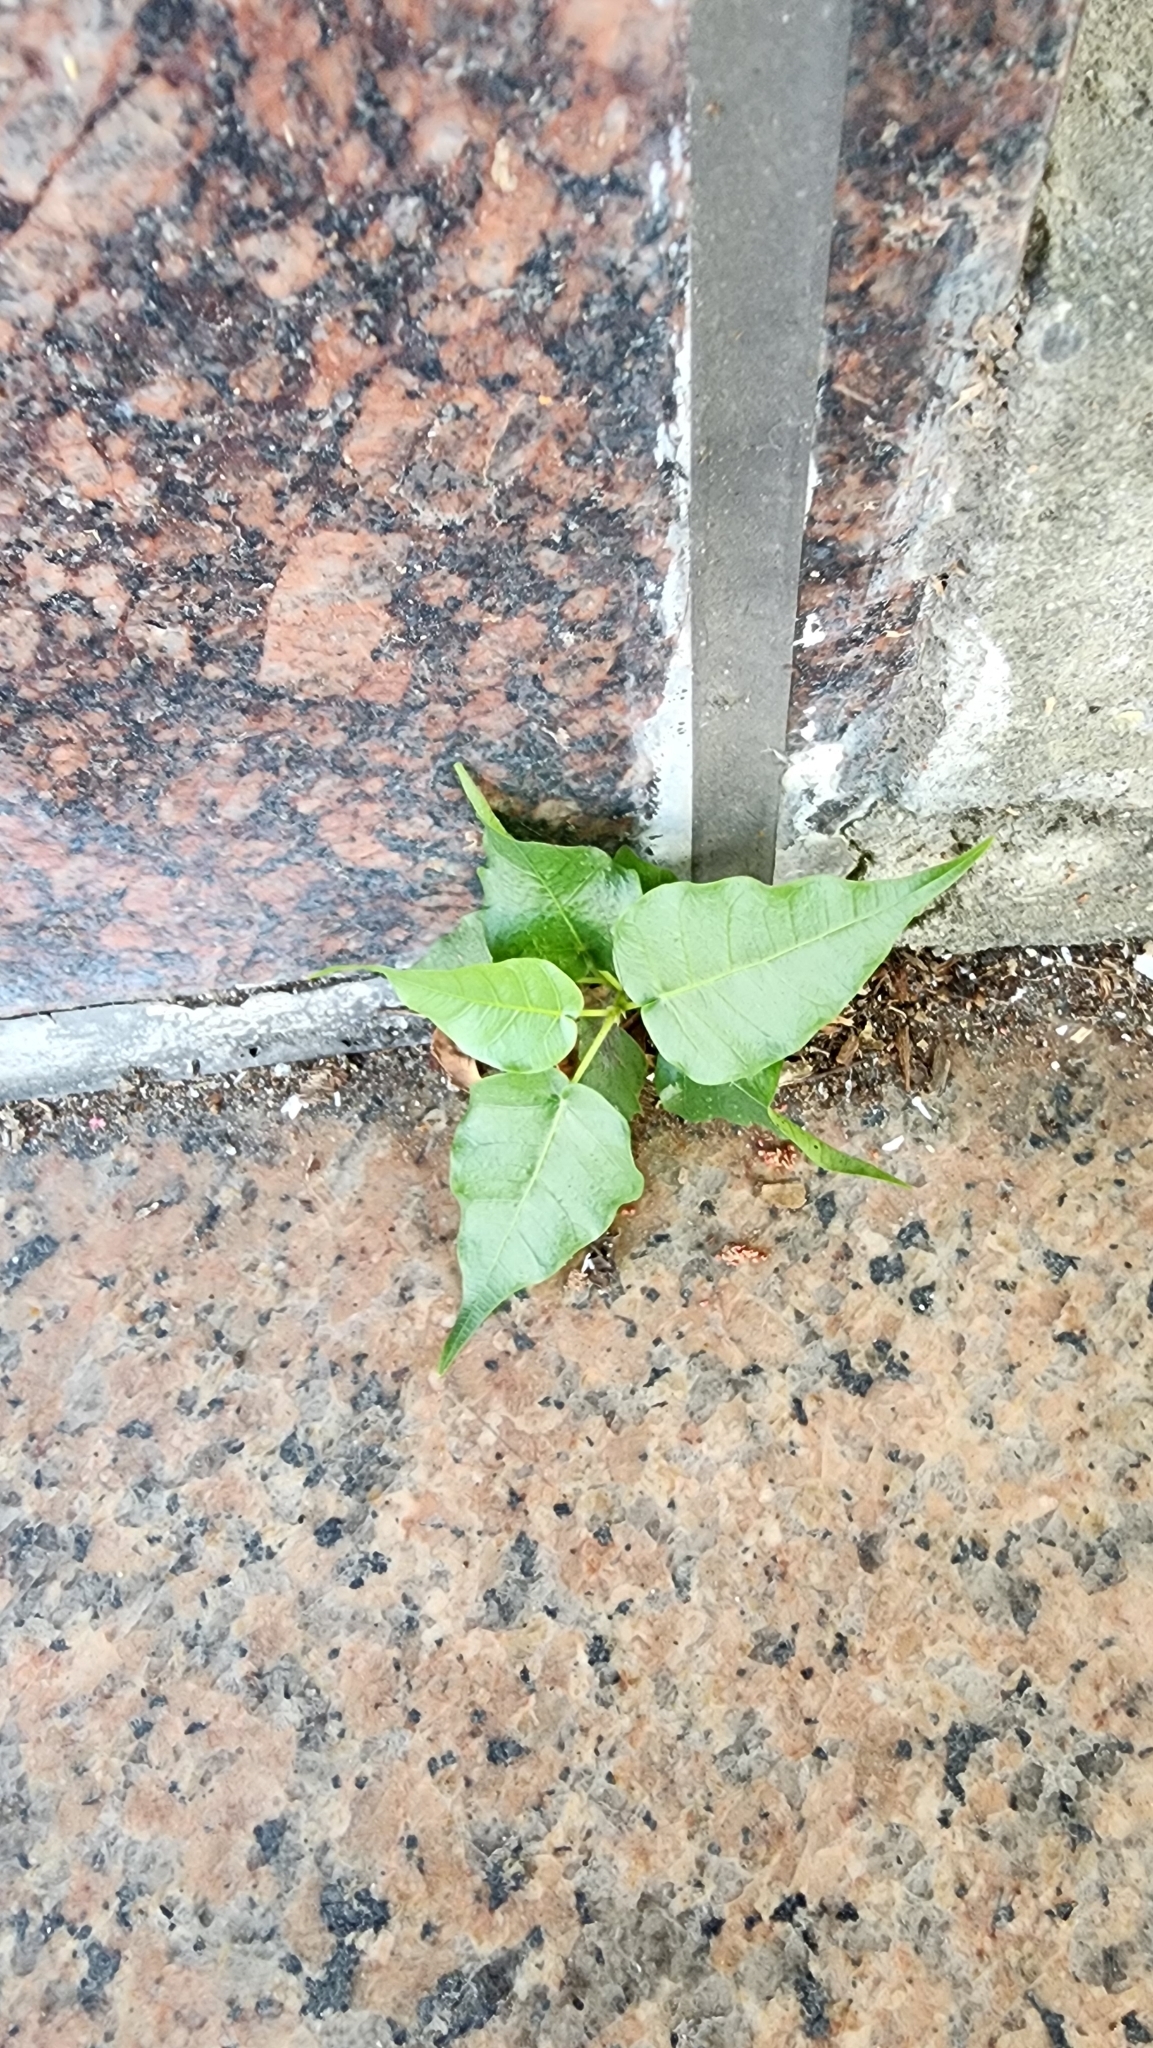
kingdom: Plantae
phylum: Tracheophyta
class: Magnoliopsida
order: Rosales
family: Moraceae
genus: Ficus
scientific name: Ficus religiosa
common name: Bodhi tree
